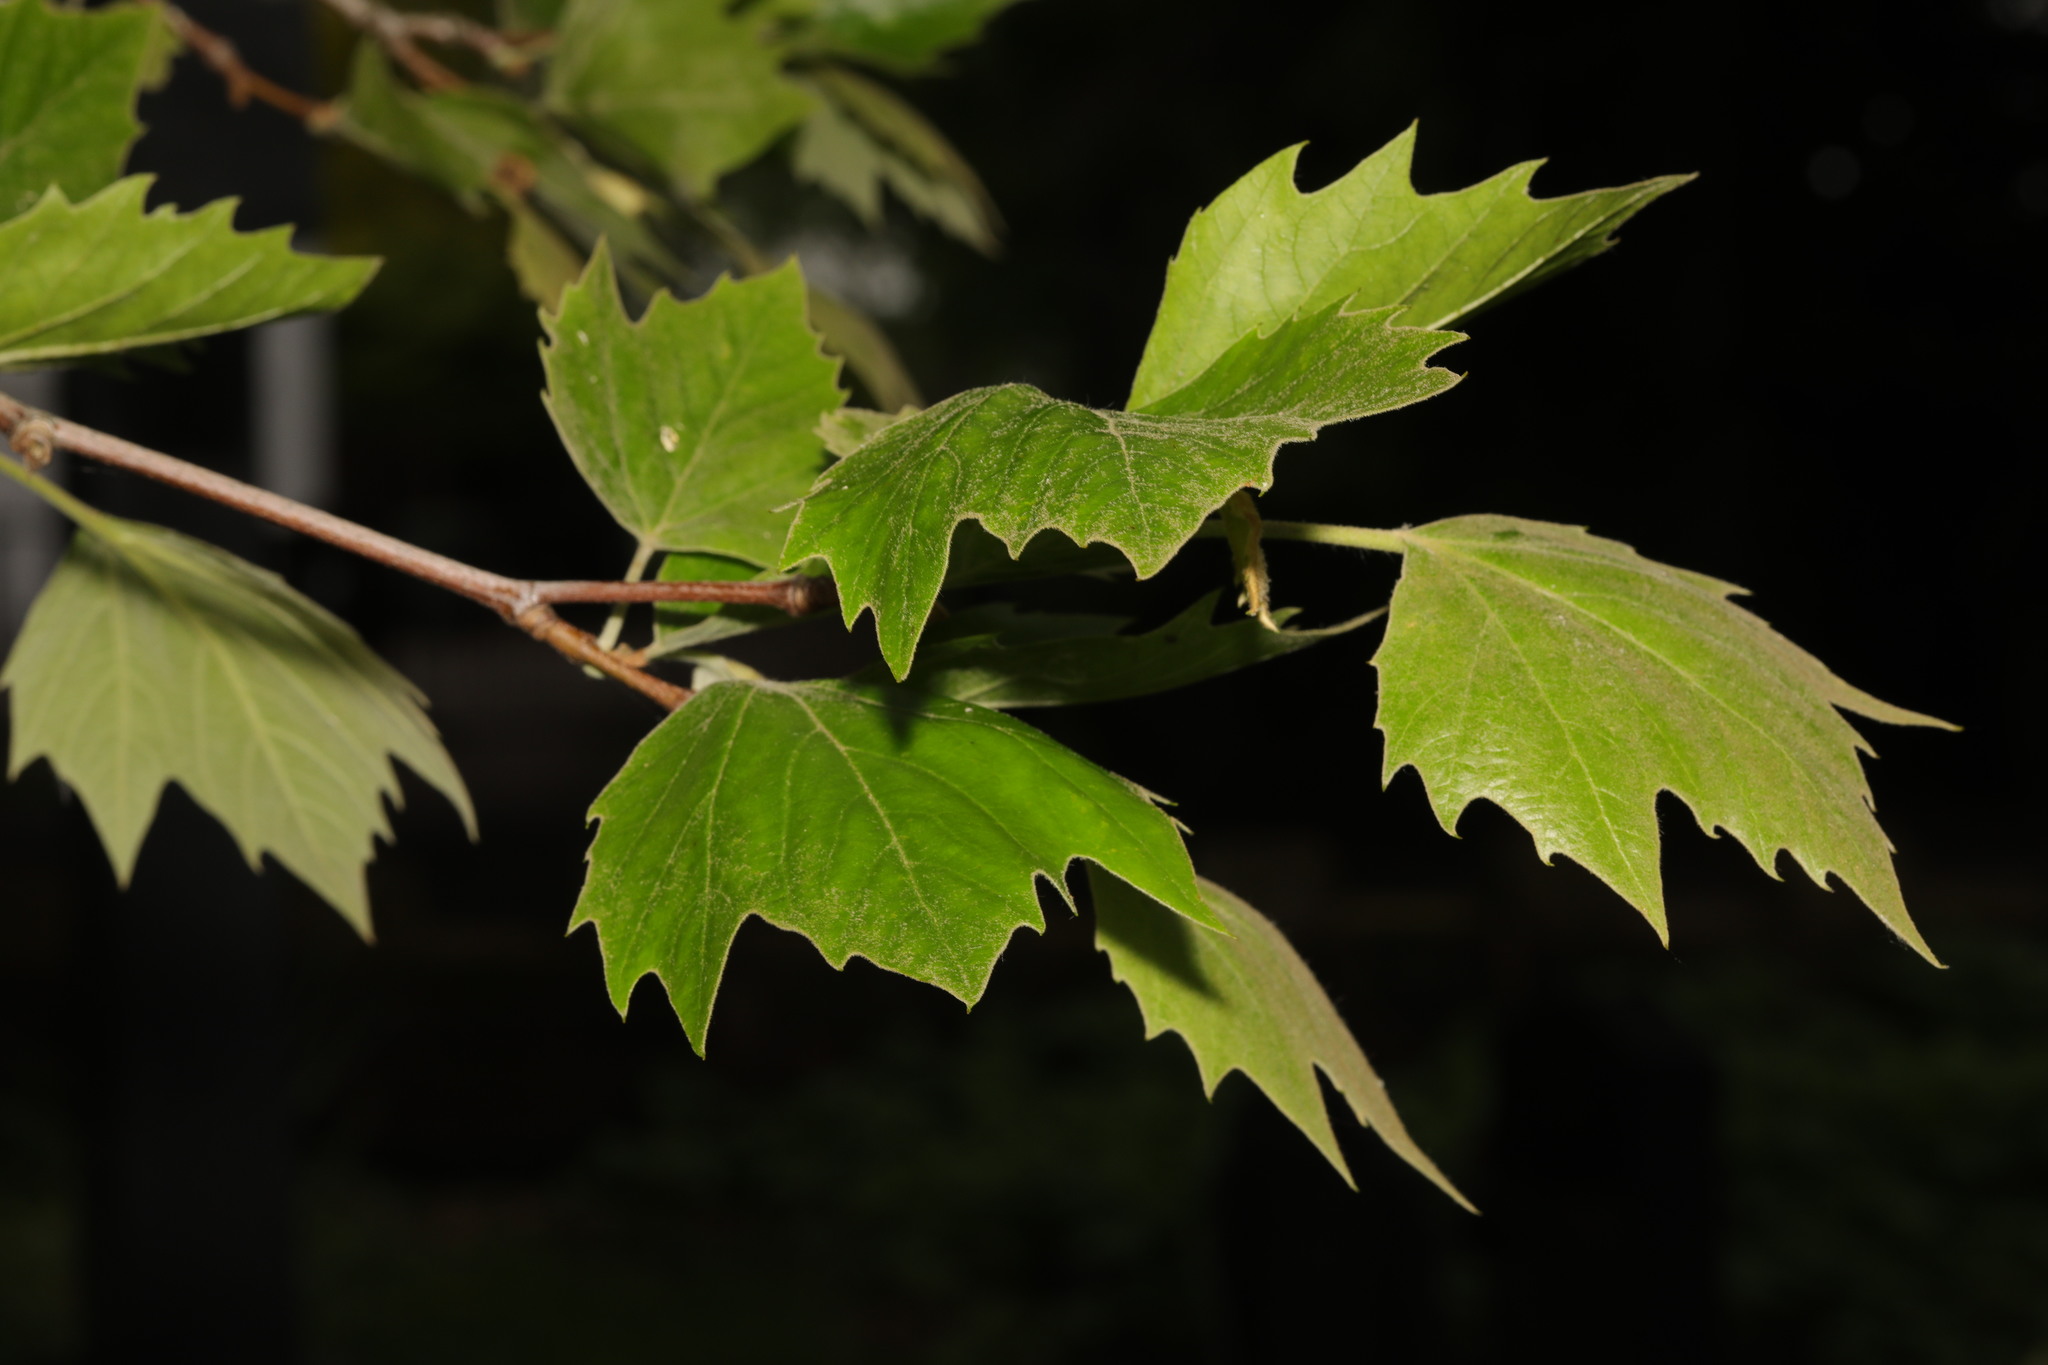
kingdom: Plantae
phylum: Tracheophyta
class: Magnoliopsida
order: Proteales
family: Platanaceae
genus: Platanus
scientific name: Platanus hispanica
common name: London plane
